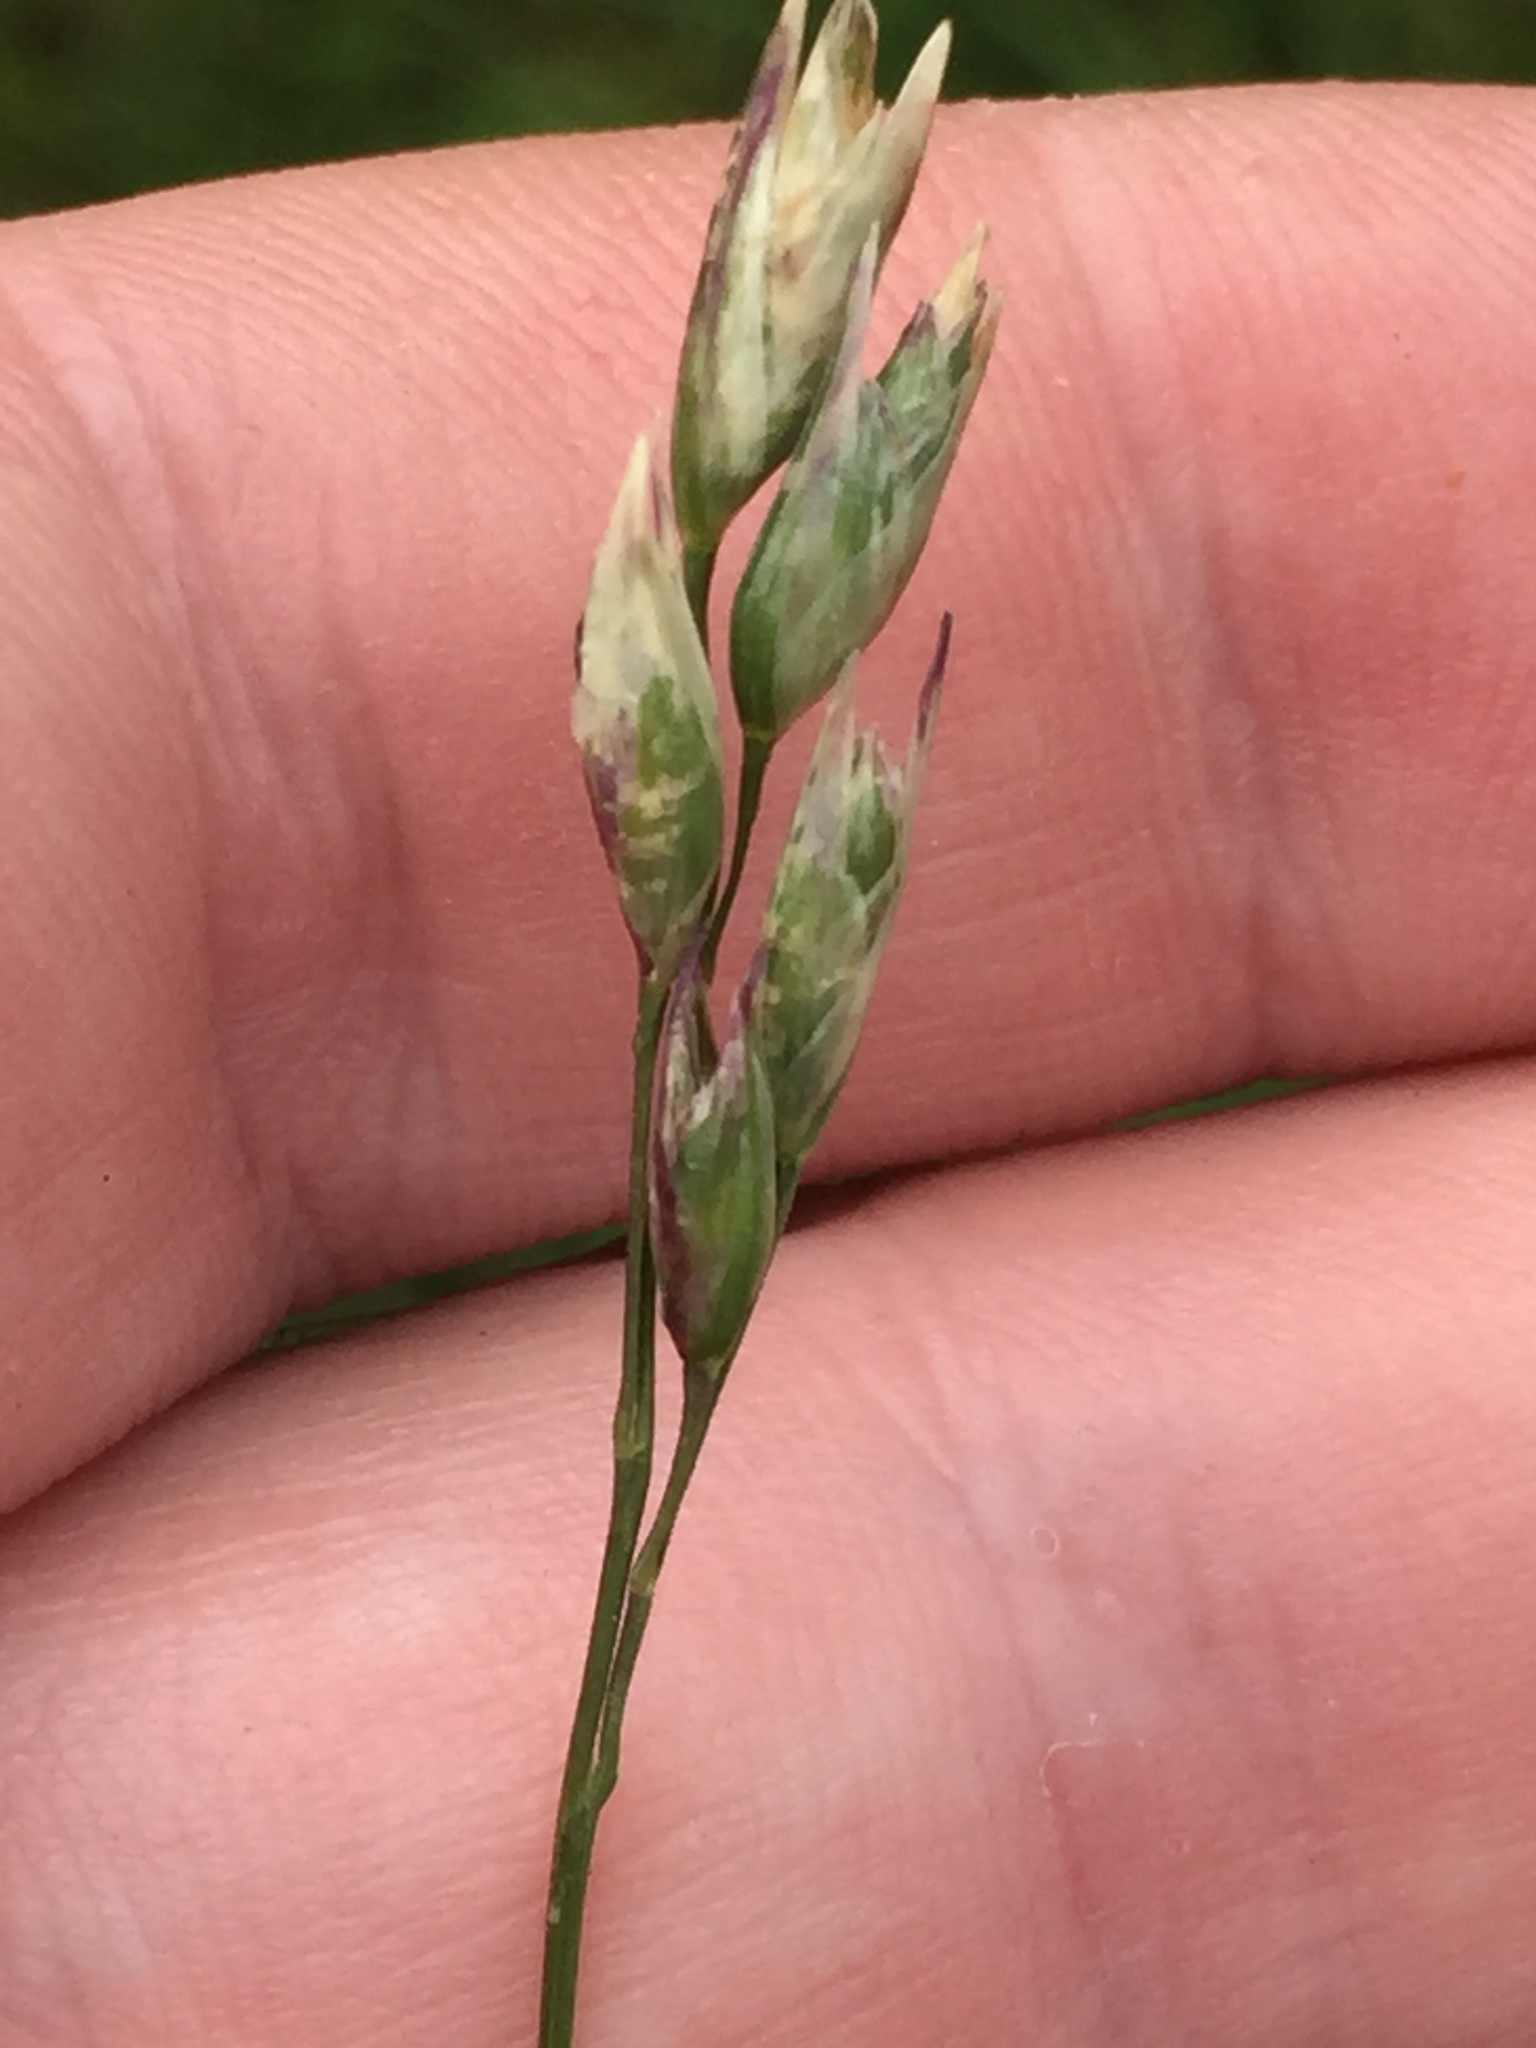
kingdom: Plantae
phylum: Tracheophyta
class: Liliopsida
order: Poales
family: Poaceae
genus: Danthonia
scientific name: Danthonia decumbens
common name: Common heathgrass
